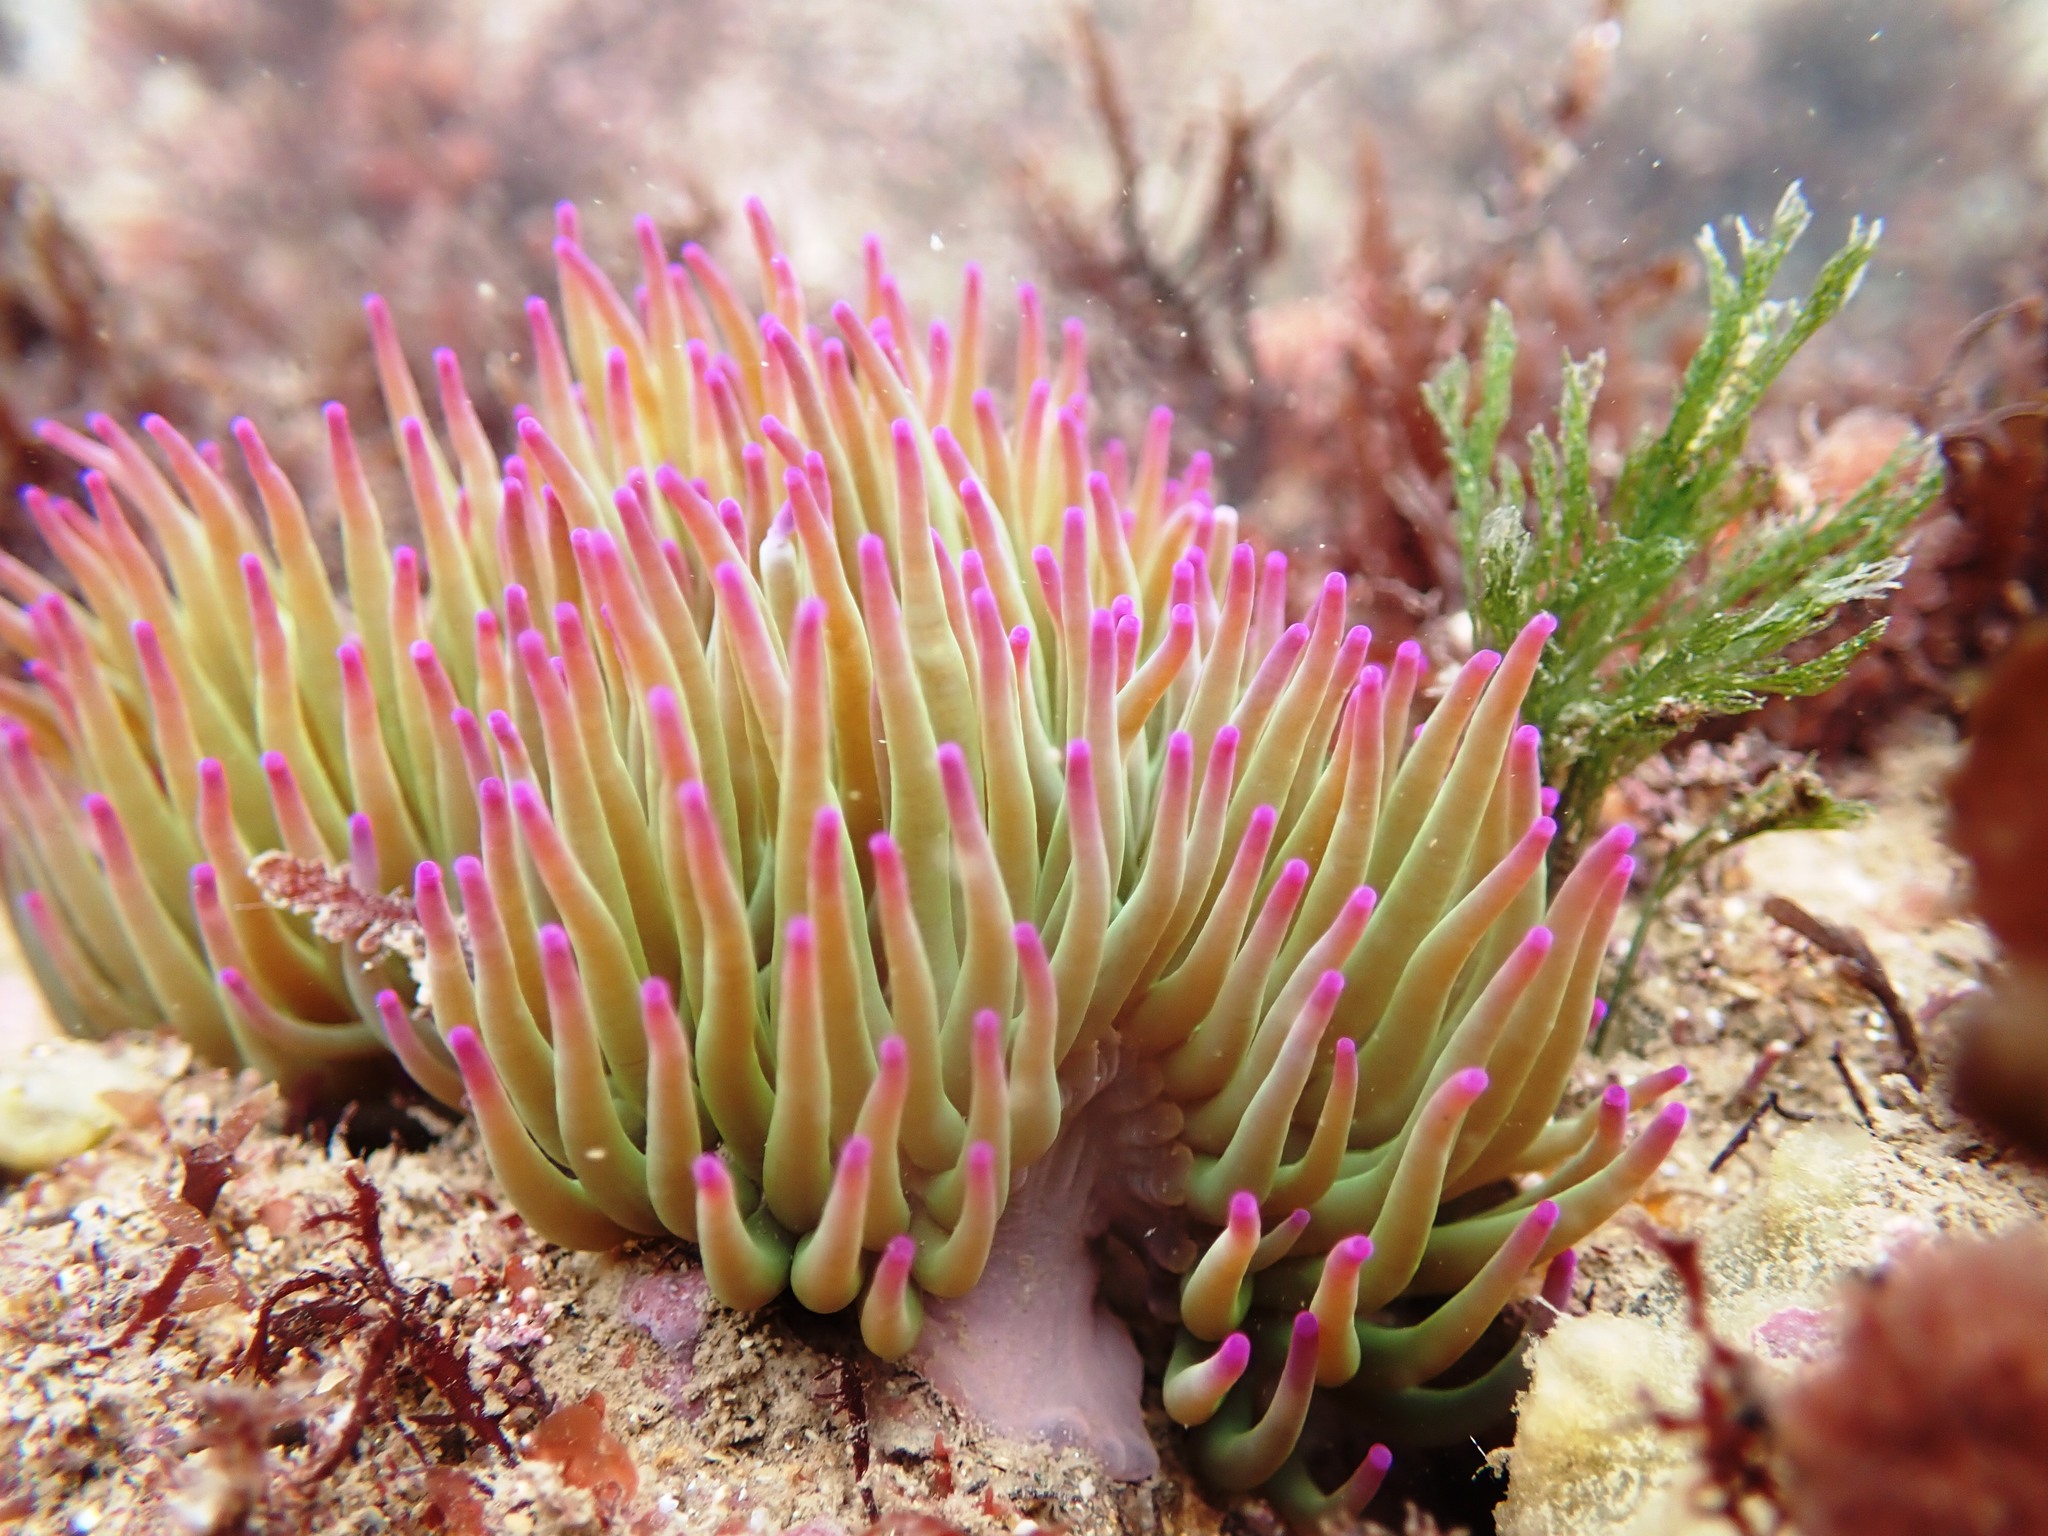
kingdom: Animalia
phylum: Cnidaria
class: Anthozoa
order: Actiniaria
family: Actiniidae
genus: Anemonia
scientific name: Anemonia viridis
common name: Snakelocks anemone
